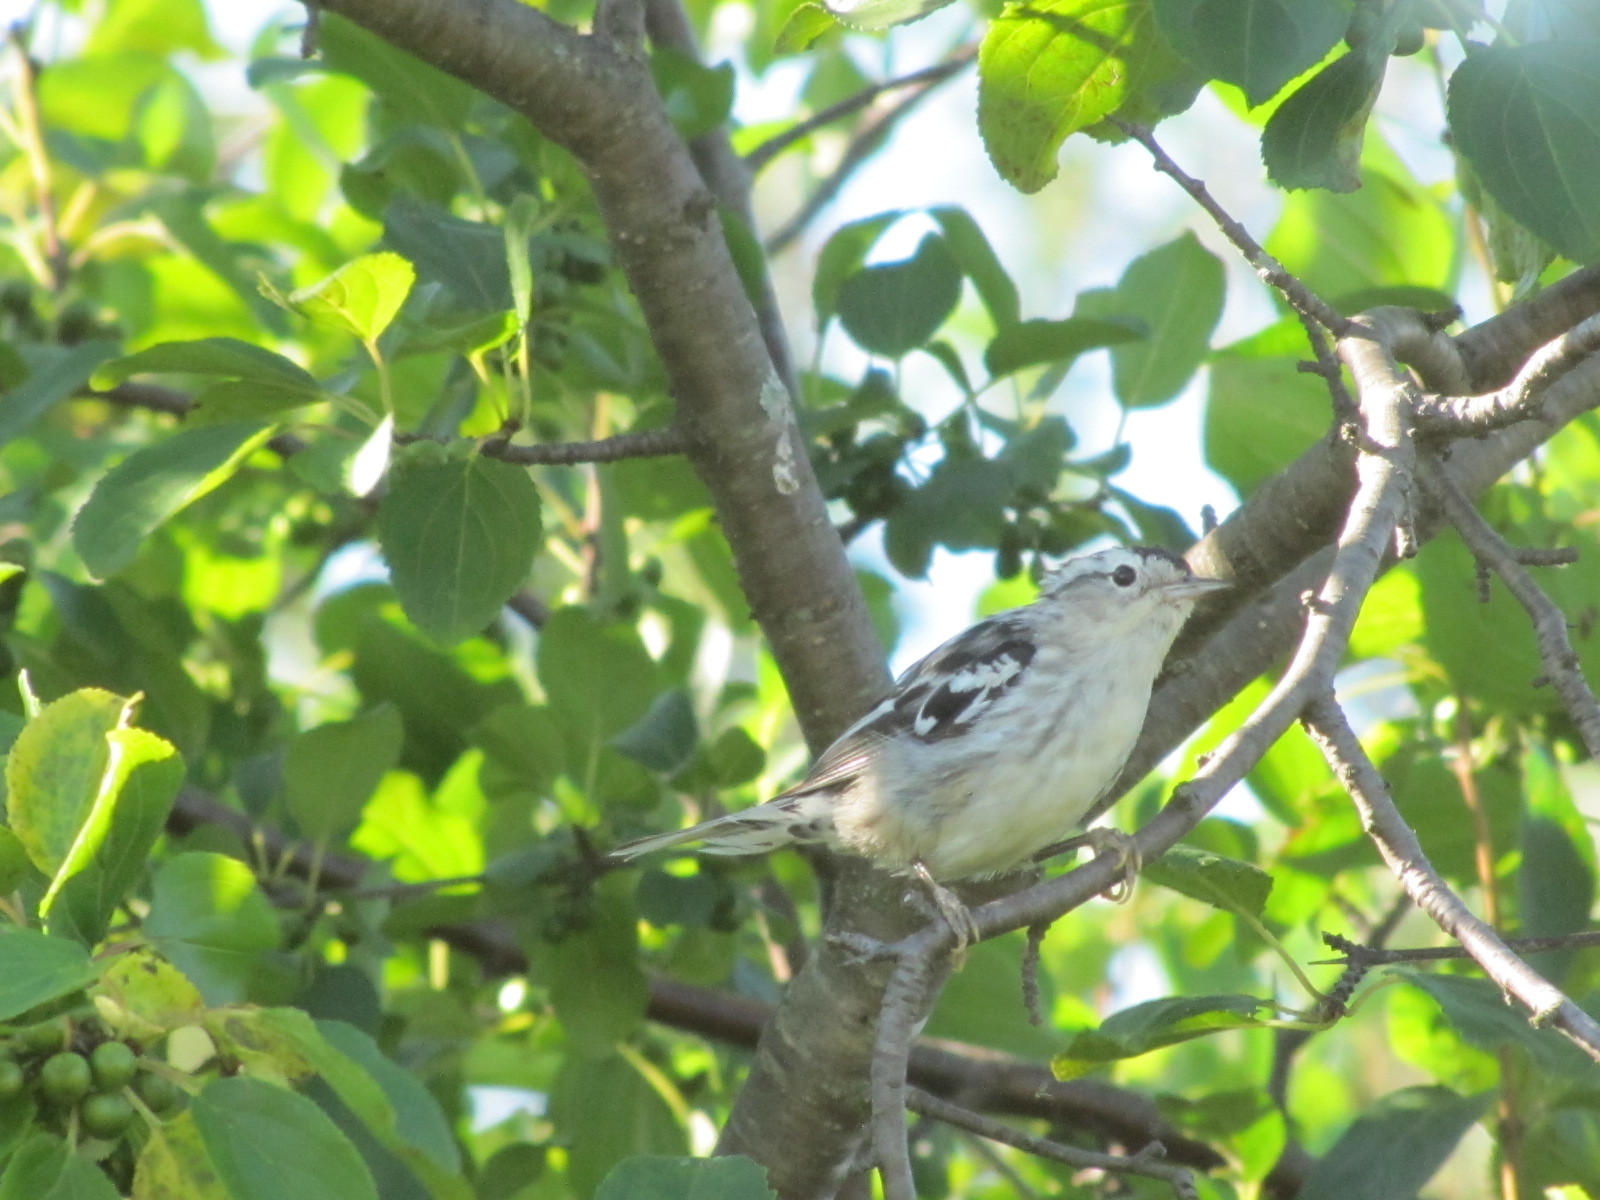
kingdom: Animalia
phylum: Chordata
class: Aves
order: Passeriformes
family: Parulidae
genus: Mniotilta
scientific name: Mniotilta varia
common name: Black-and-white warbler
